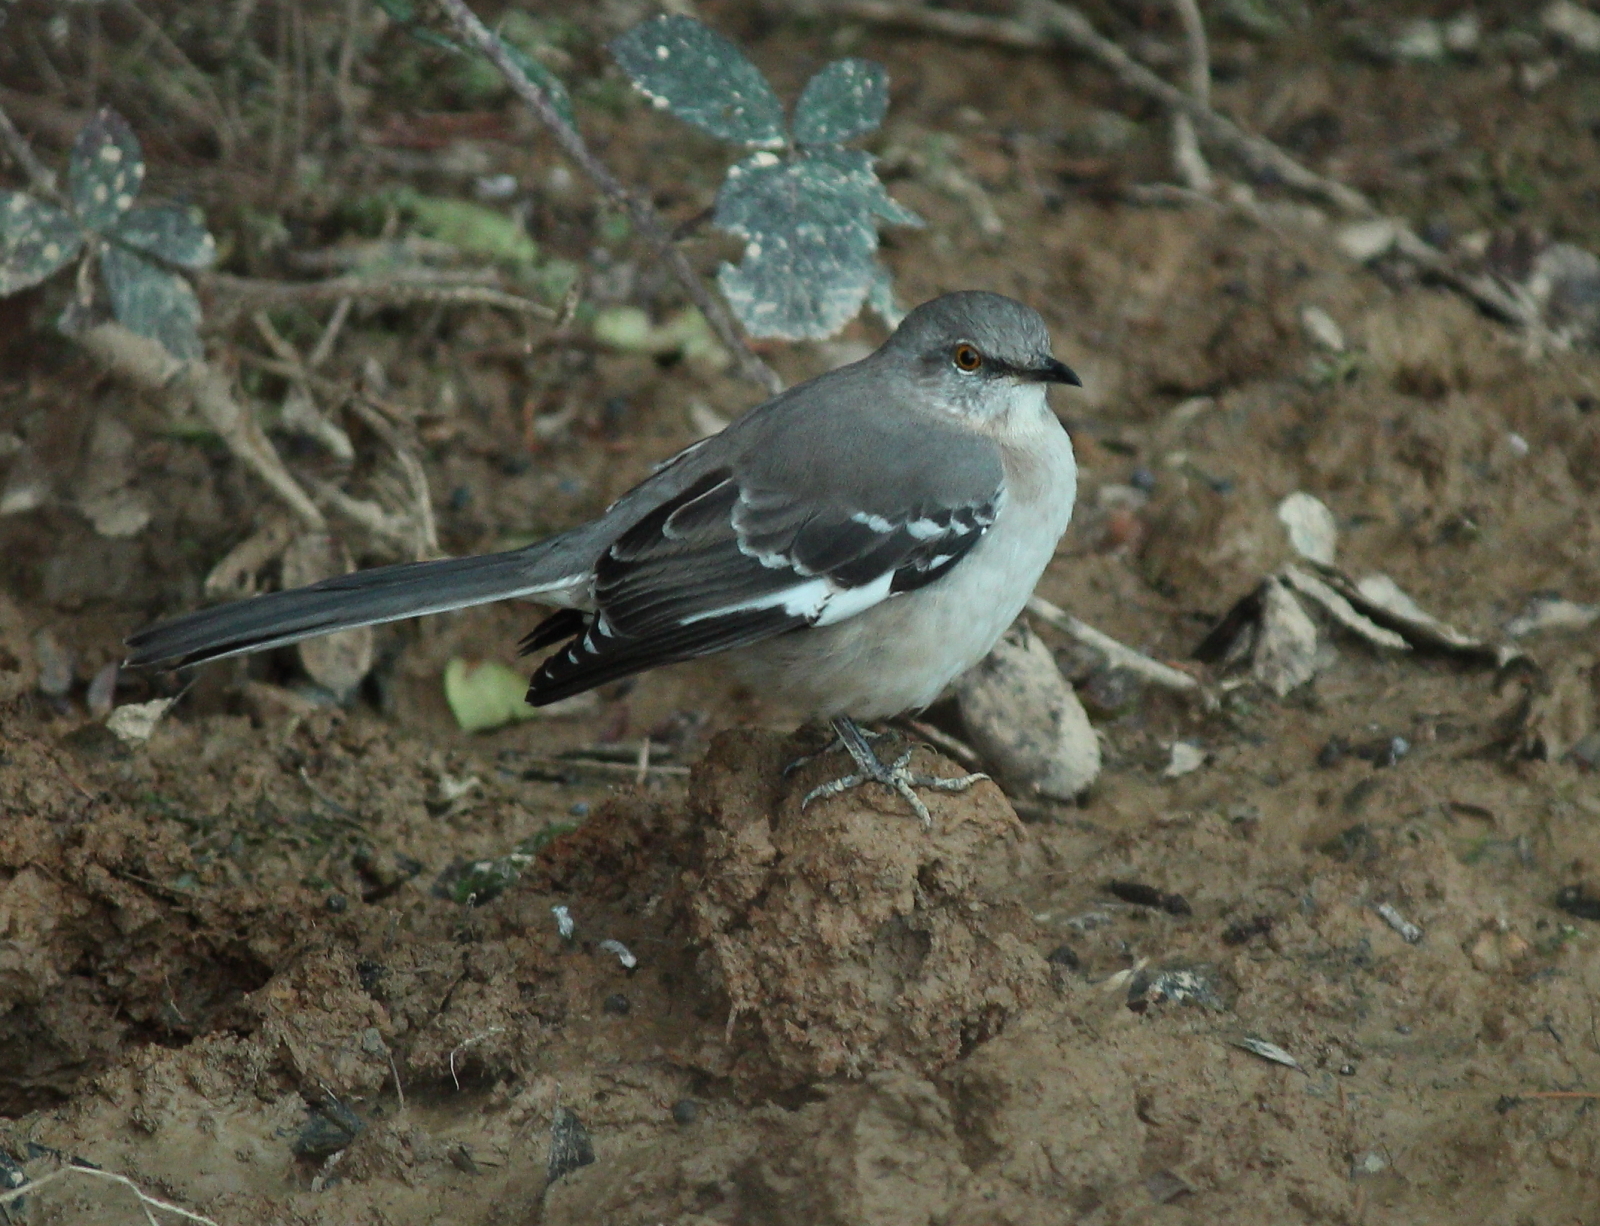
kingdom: Animalia
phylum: Chordata
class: Aves
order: Passeriformes
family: Mimidae
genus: Mimus
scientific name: Mimus polyglottos
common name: Northern mockingbird
